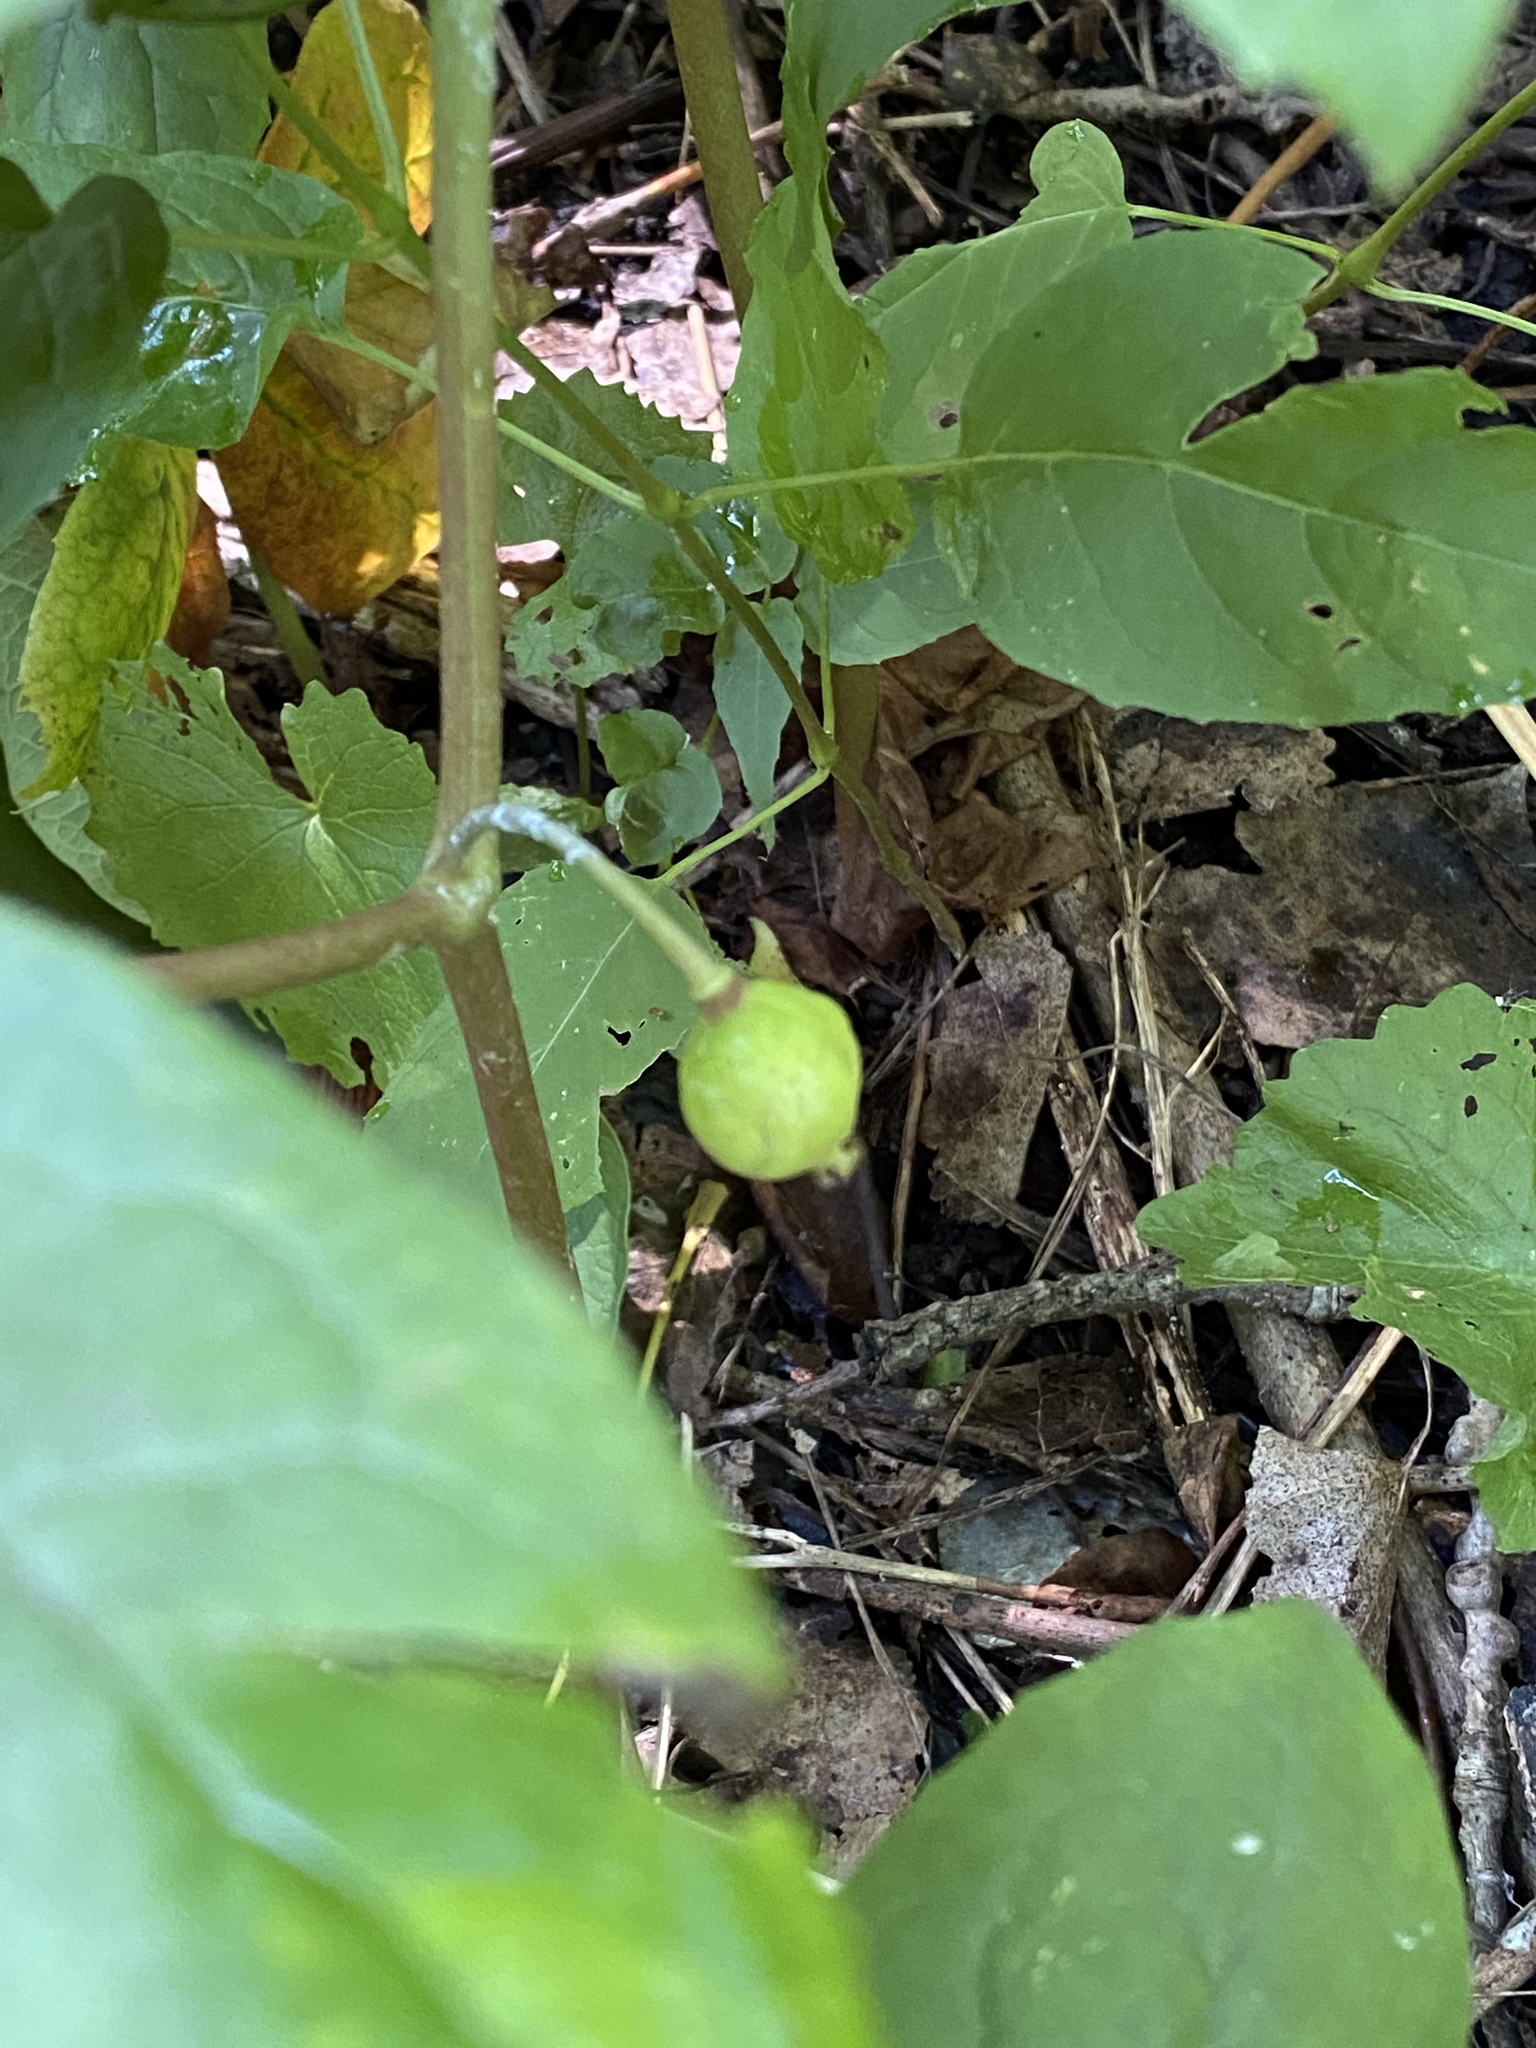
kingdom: Plantae
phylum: Tracheophyta
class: Magnoliopsida
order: Ranunculales
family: Berberidaceae
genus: Podophyllum
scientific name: Podophyllum peltatum
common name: Wild mandrake
